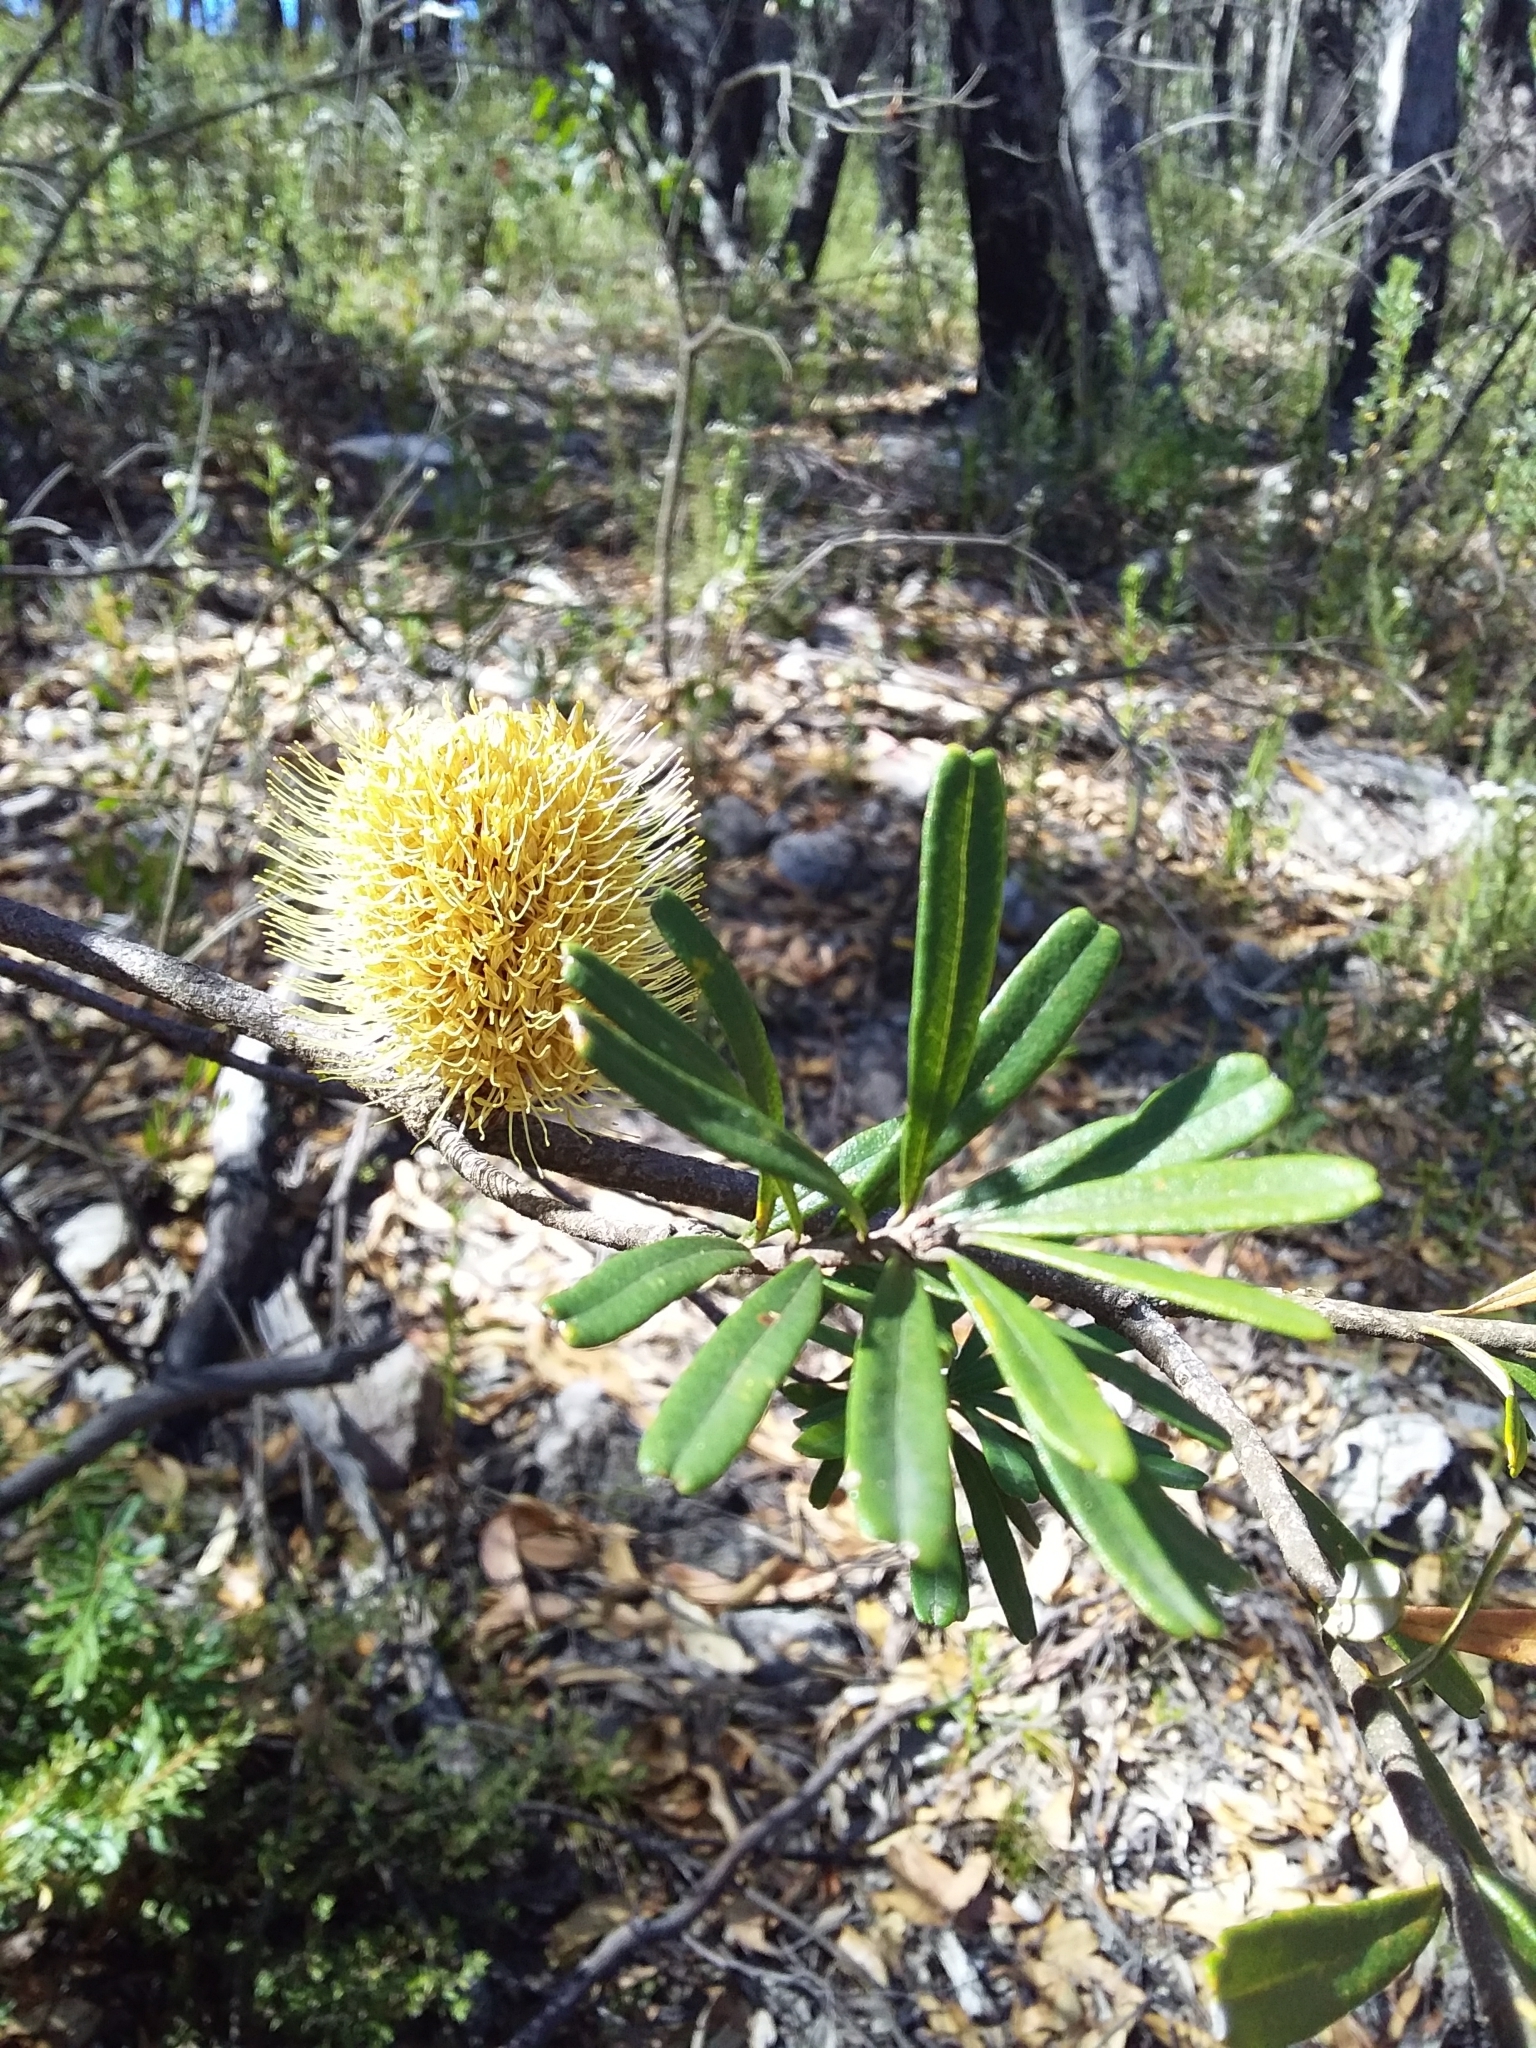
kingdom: Plantae
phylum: Tracheophyta
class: Magnoliopsida
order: Proteales
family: Proteaceae
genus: Banksia
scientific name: Banksia marginata
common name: Silver banksia
